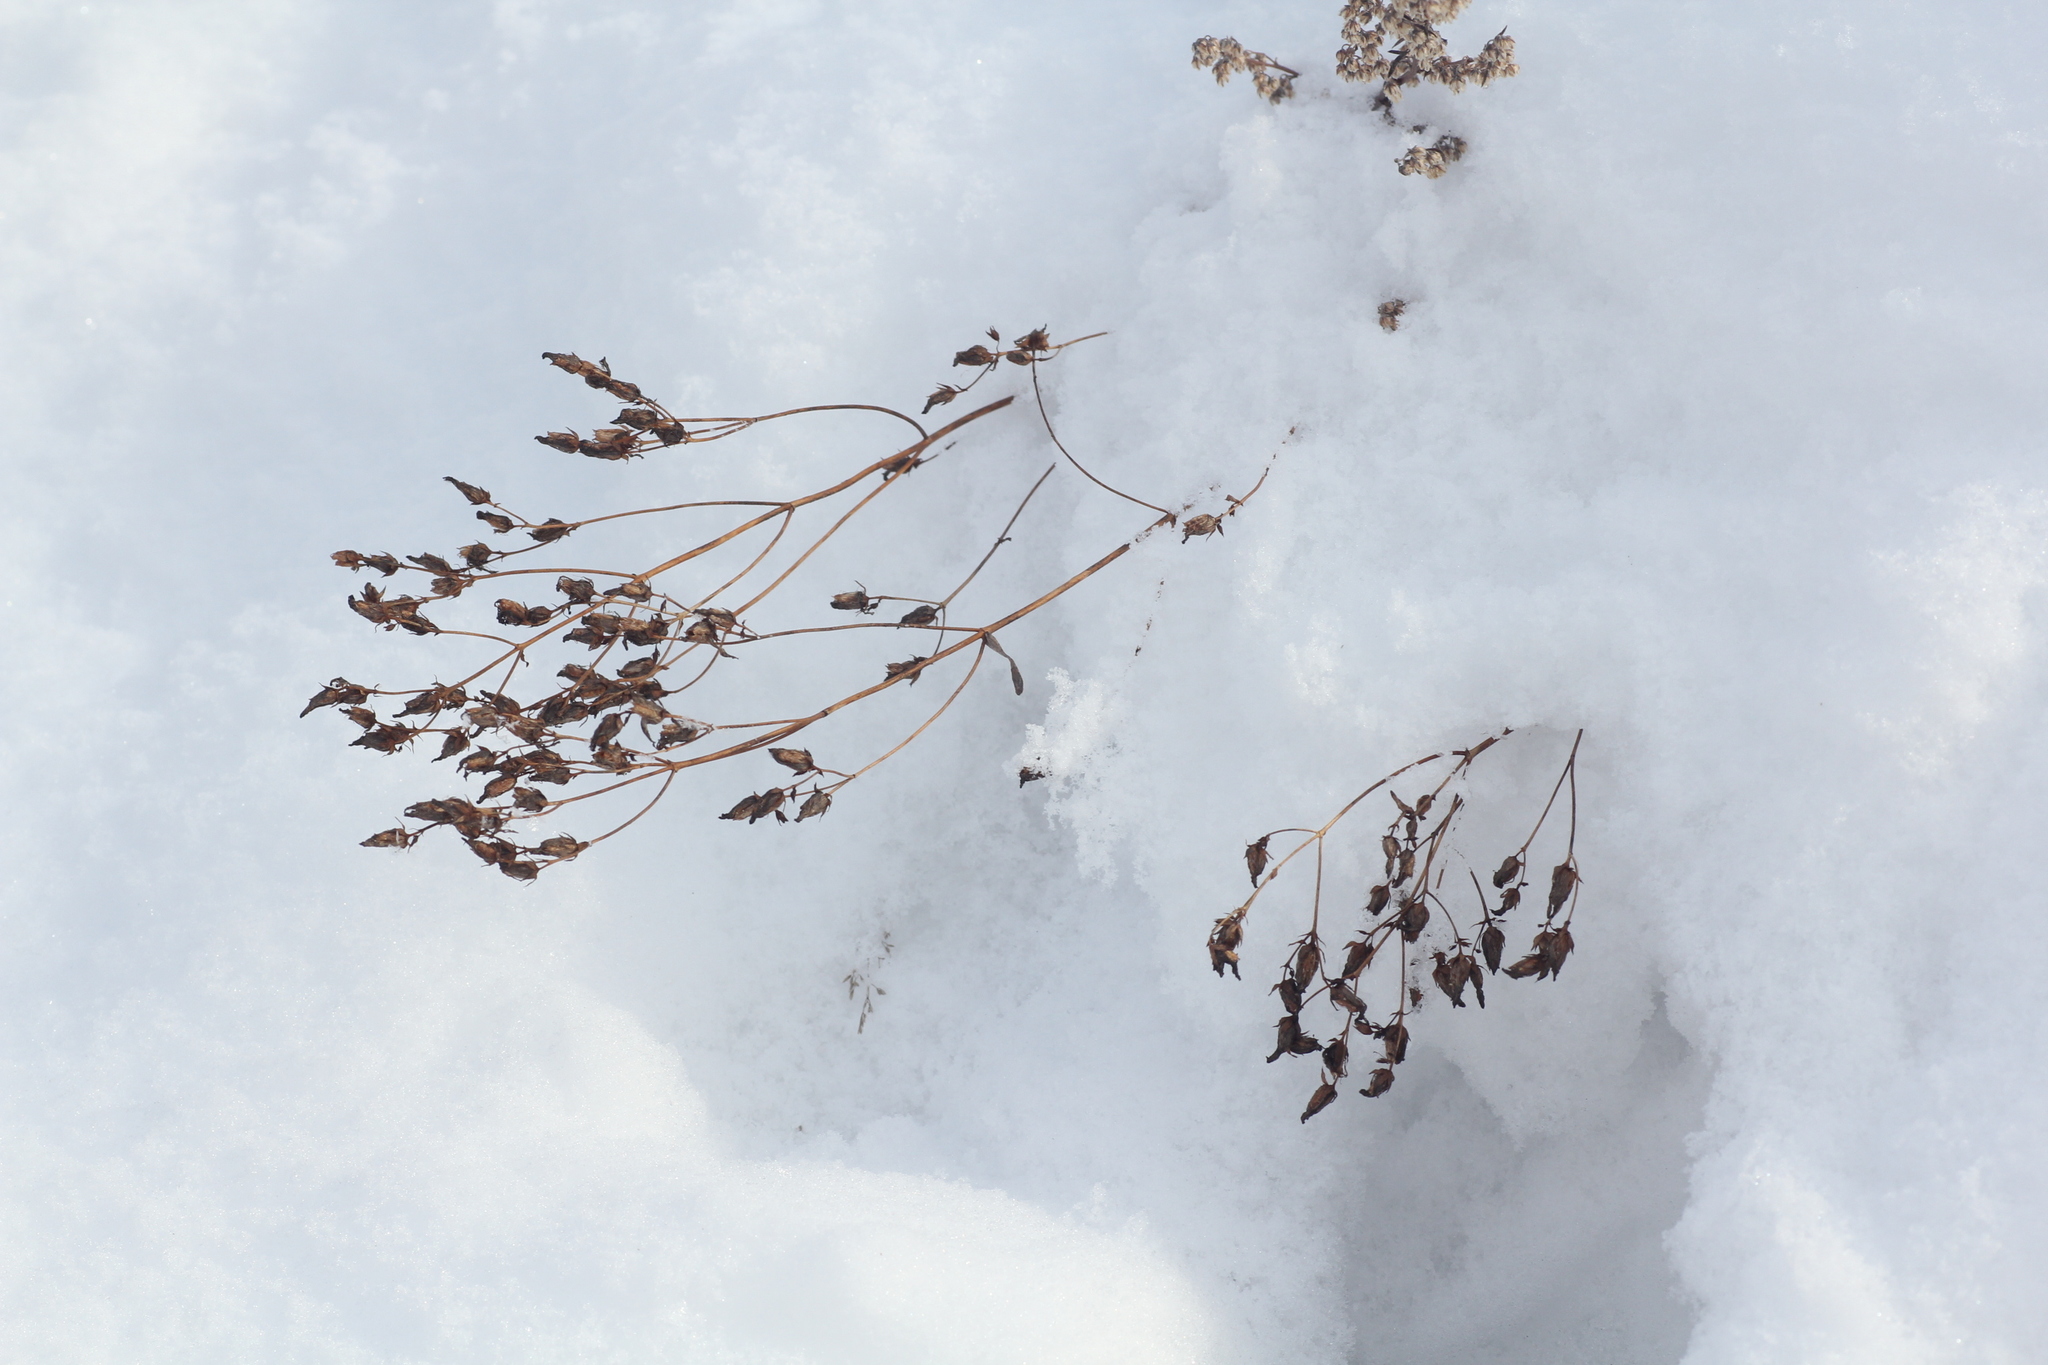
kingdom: Plantae
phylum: Tracheophyta
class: Magnoliopsida
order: Malpighiales
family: Hypericaceae
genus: Hypericum
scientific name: Hypericum perforatum
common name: Common st. johnswort
